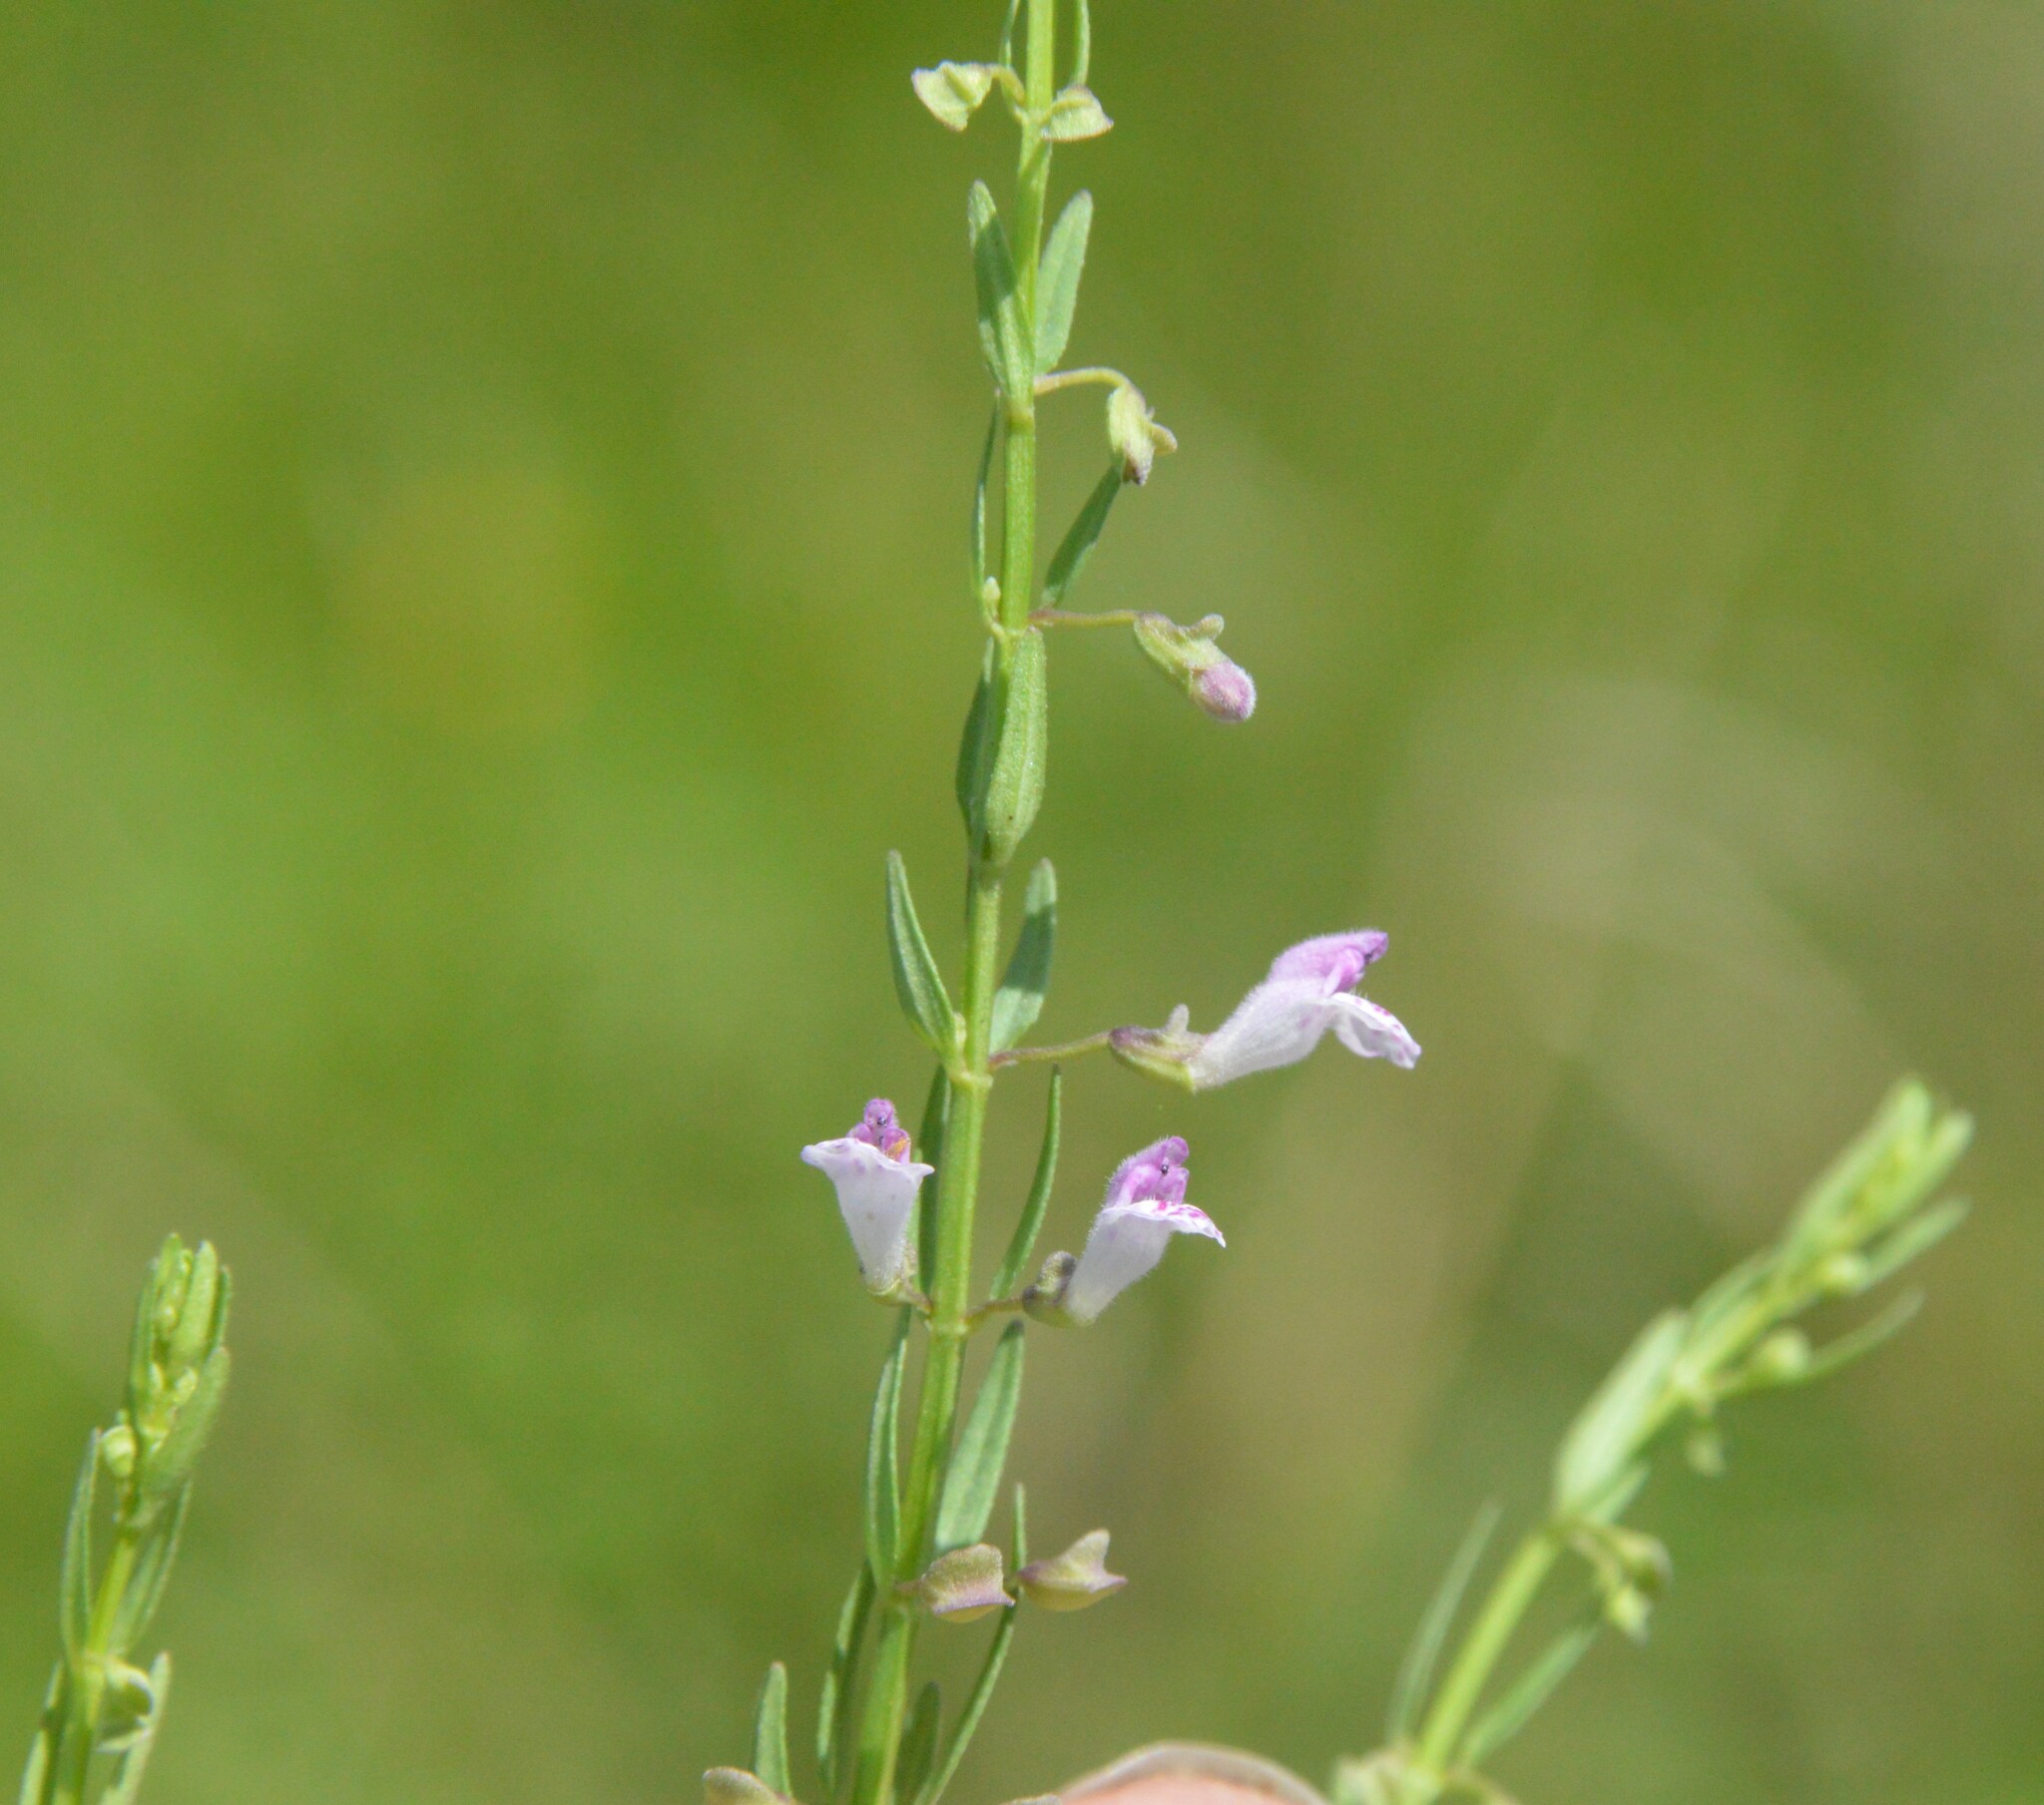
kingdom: Plantae
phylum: Tracheophyta
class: Magnoliopsida
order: Lamiales
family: Lamiaceae
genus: Scutellaria
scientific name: Scutellaria racemosa
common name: South american skullcap
